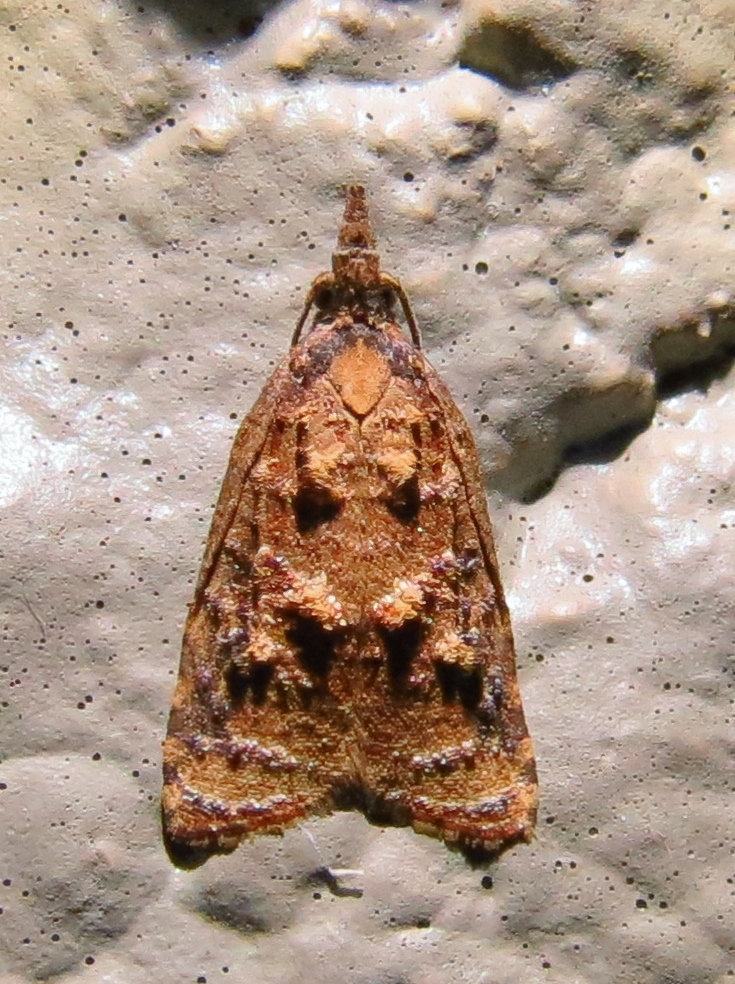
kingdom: Animalia
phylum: Arthropoda
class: Insecta
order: Lepidoptera
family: Tortricidae
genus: Platynota
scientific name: Platynota idaeusalis
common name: Tufted apple bud moth
